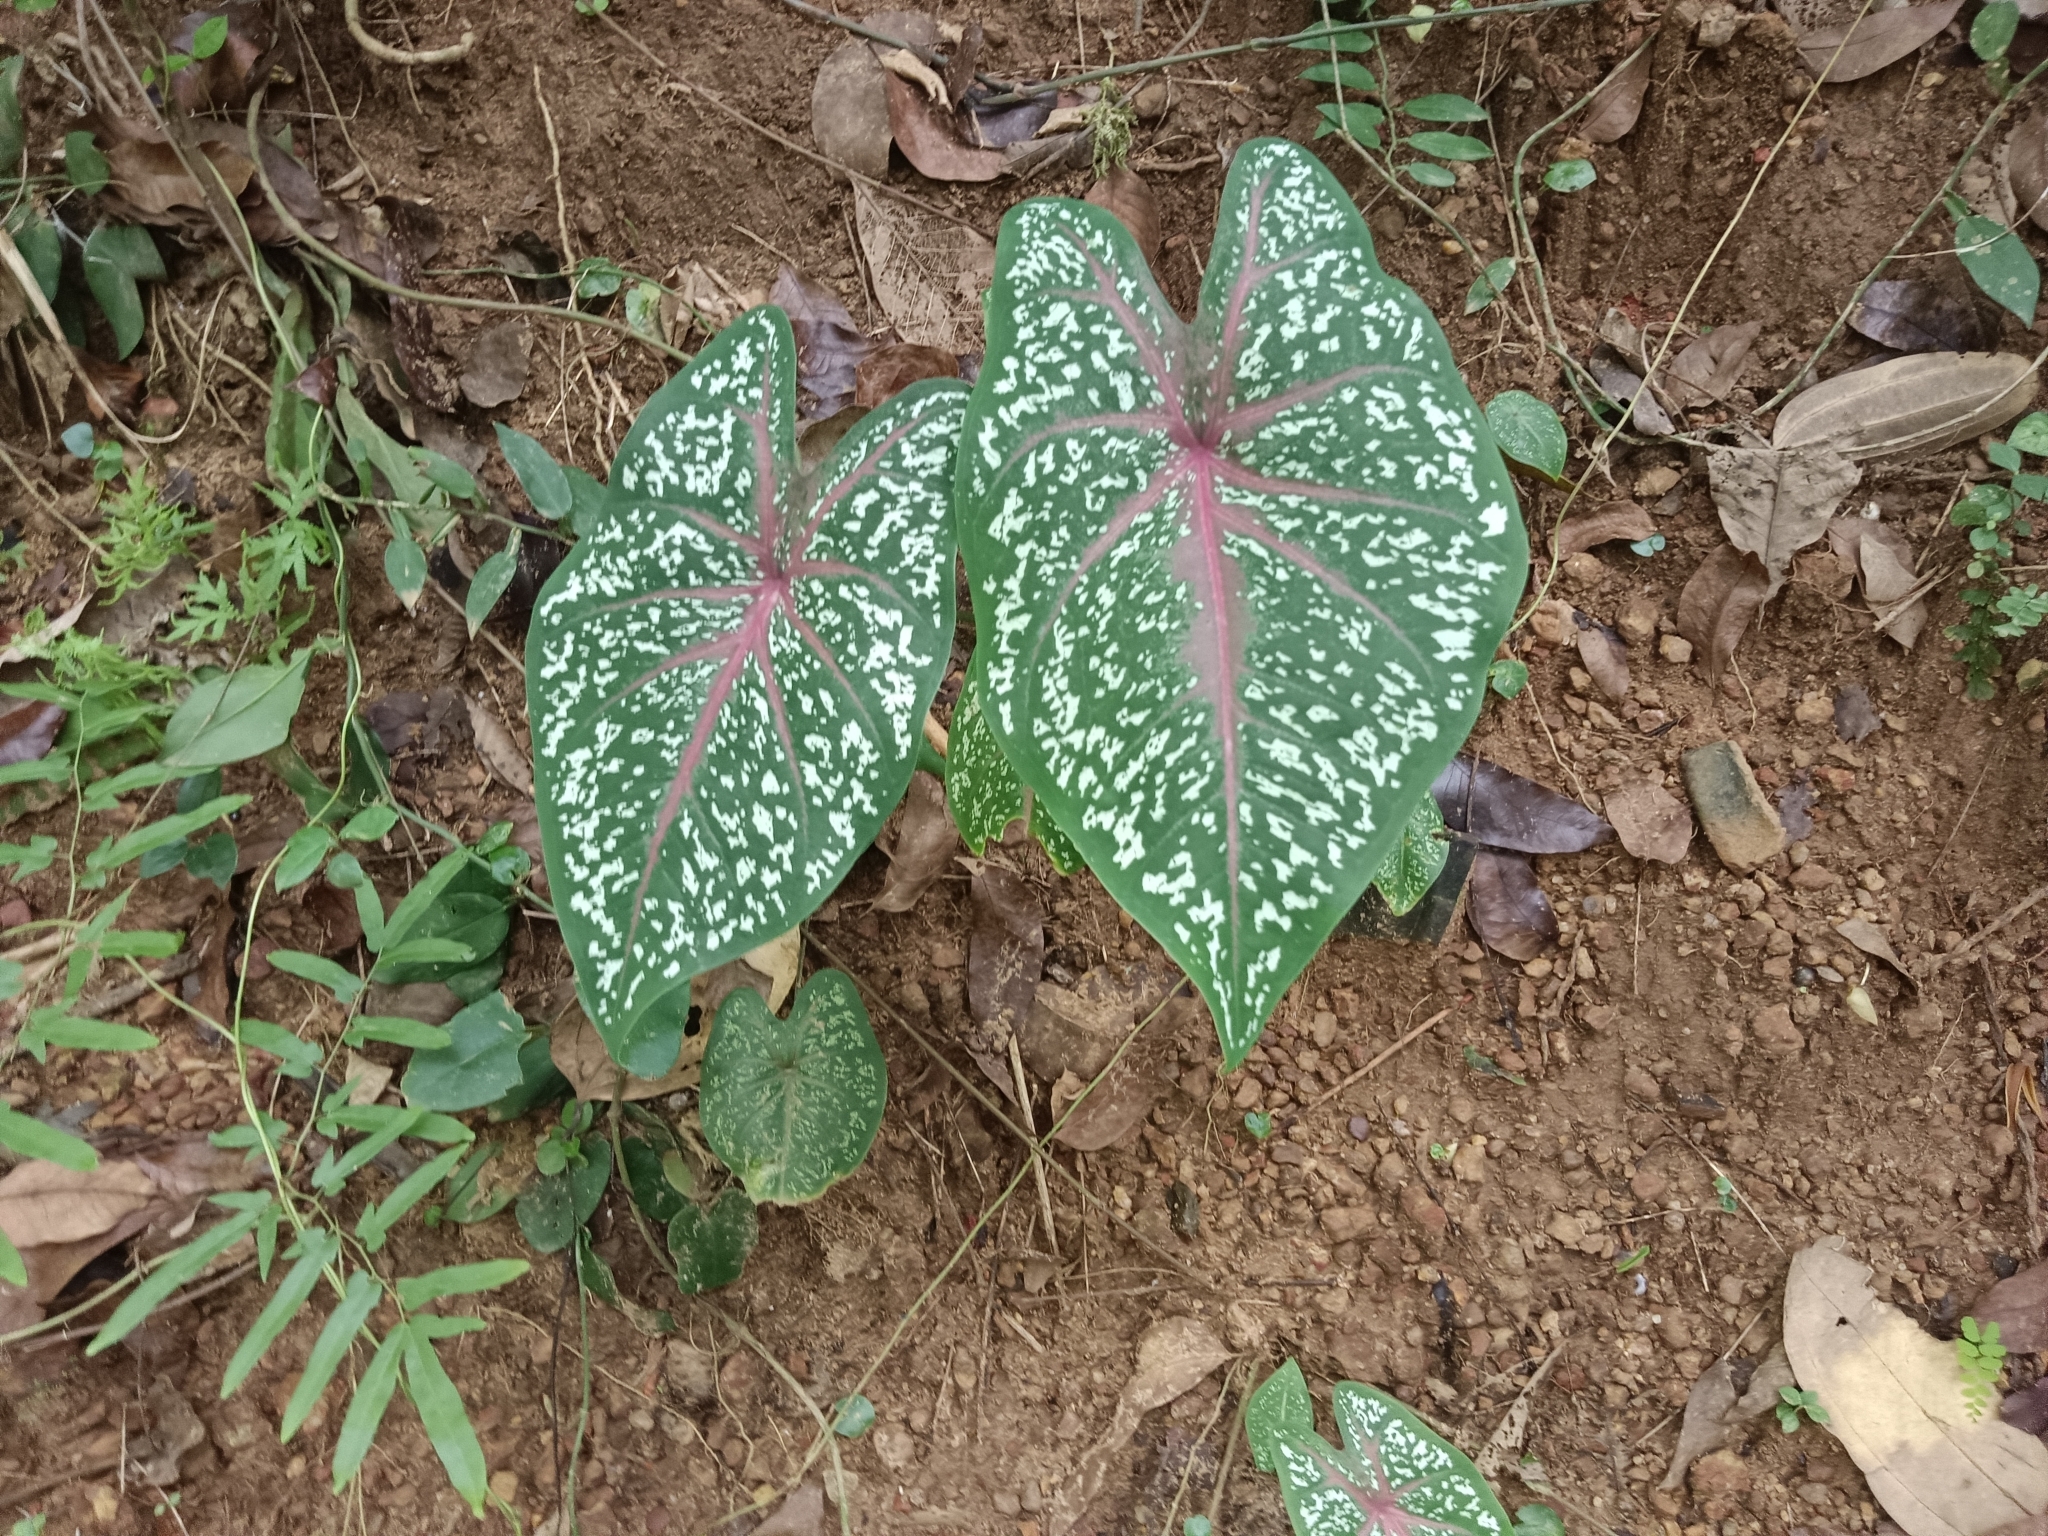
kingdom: Plantae
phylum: Tracheophyta
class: Liliopsida
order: Alismatales
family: Araceae
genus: Caladium
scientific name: Caladium bicolor
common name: Artist's pallet
